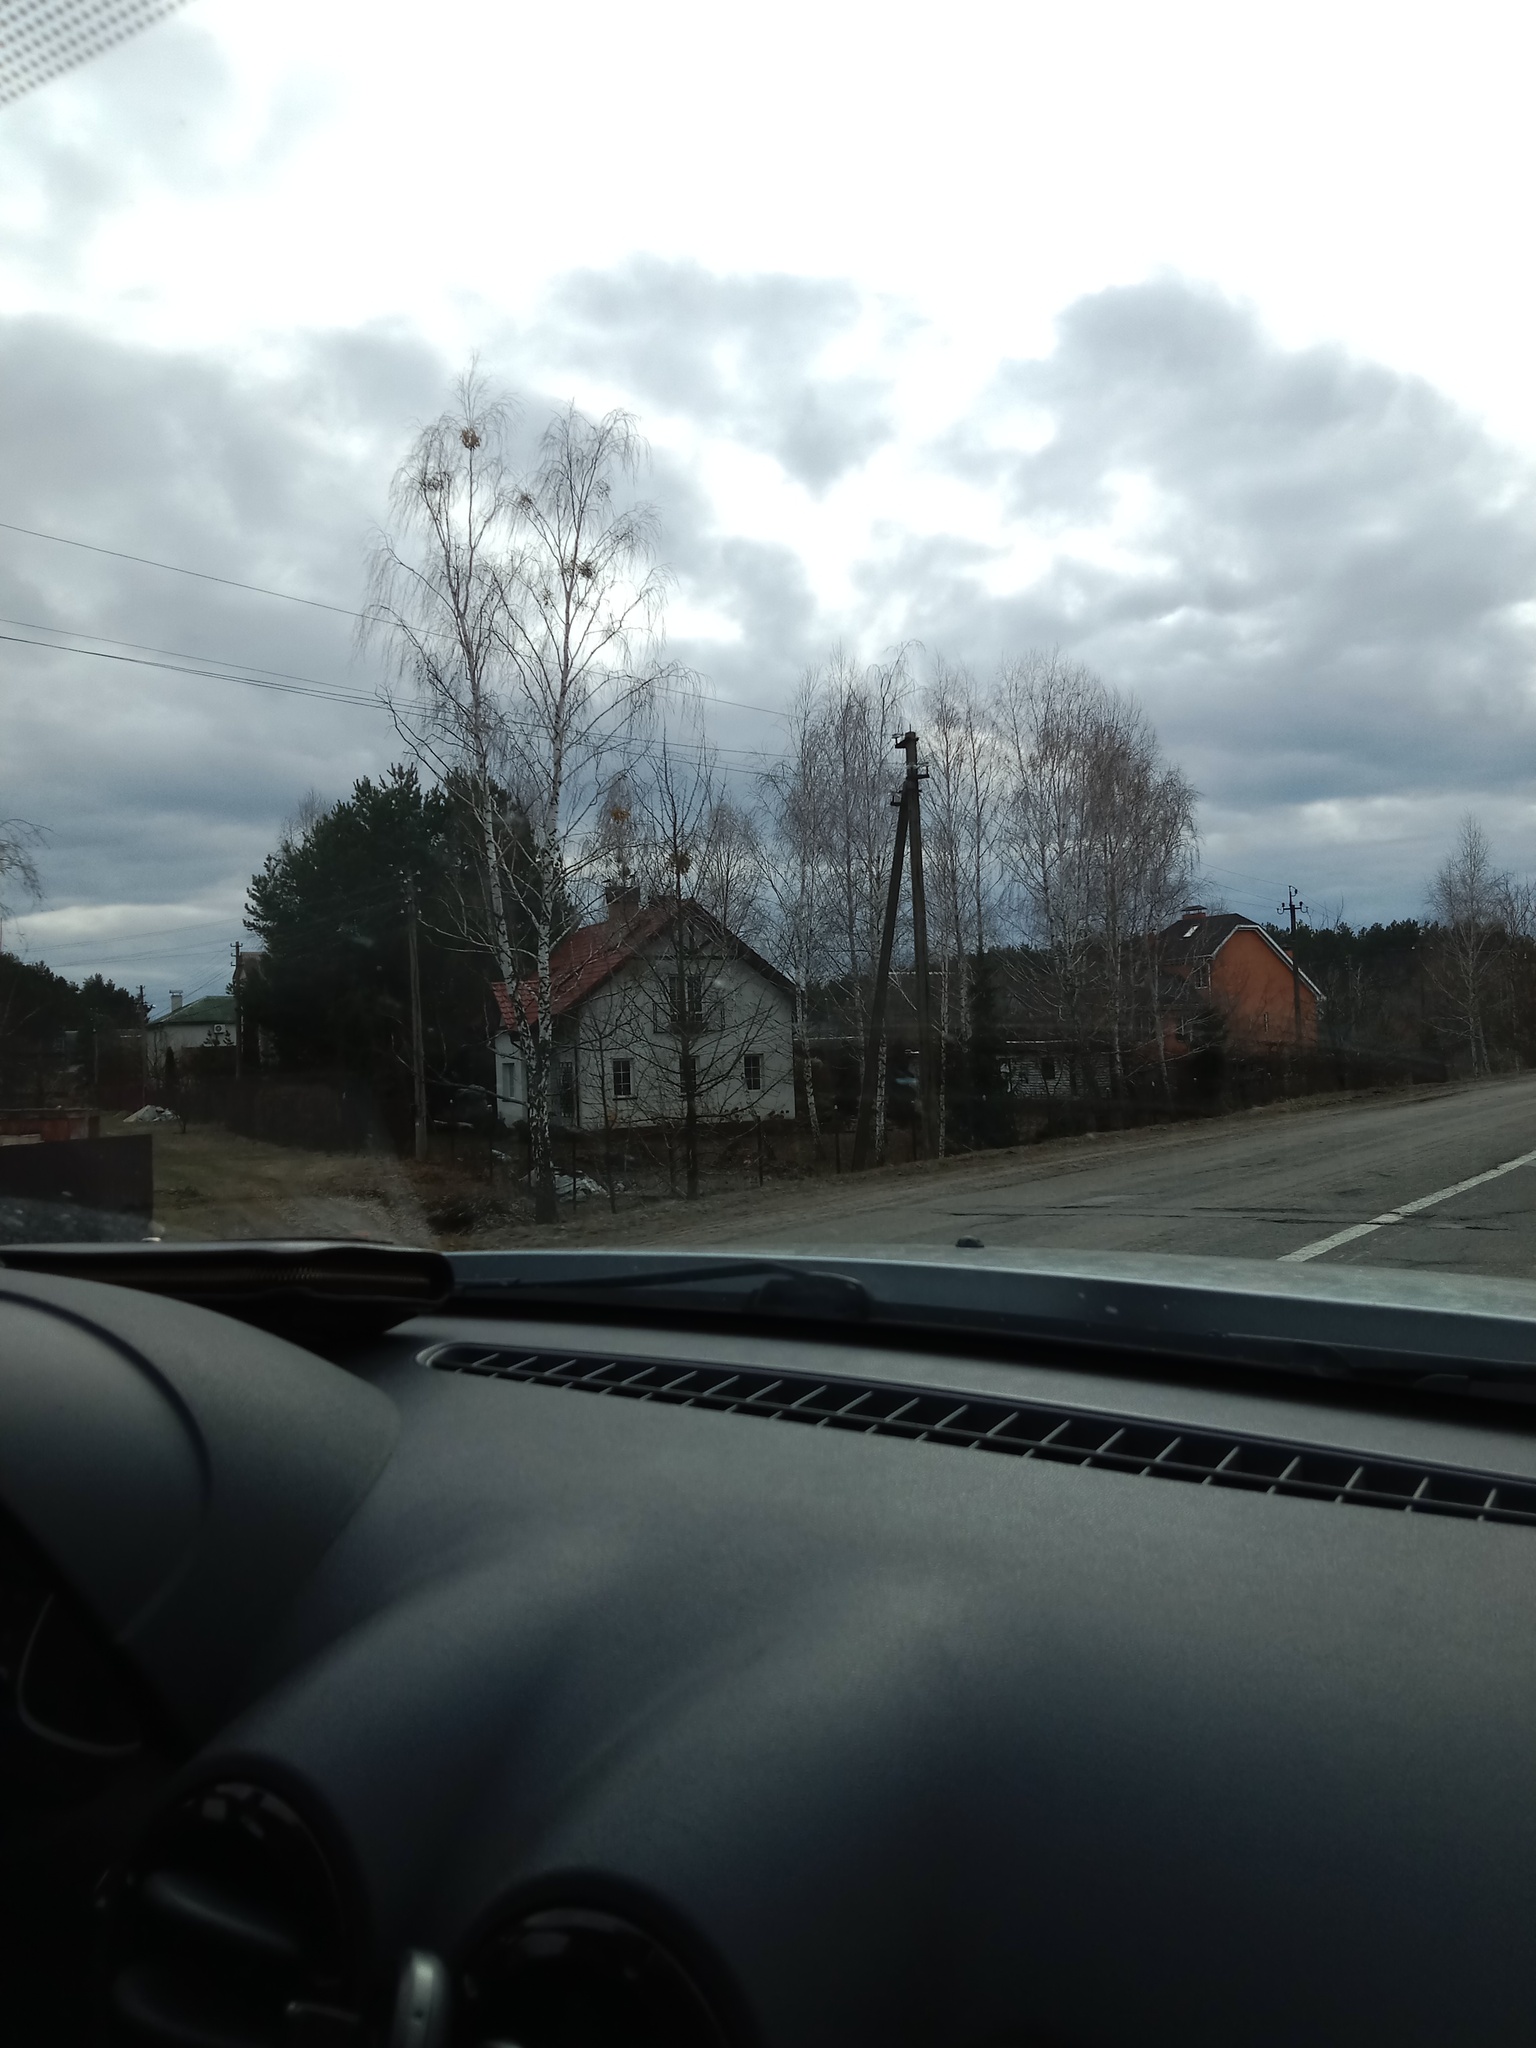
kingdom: Plantae
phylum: Tracheophyta
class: Magnoliopsida
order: Santalales
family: Viscaceae
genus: Viscum
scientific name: Viscum album
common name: Mistletoe
